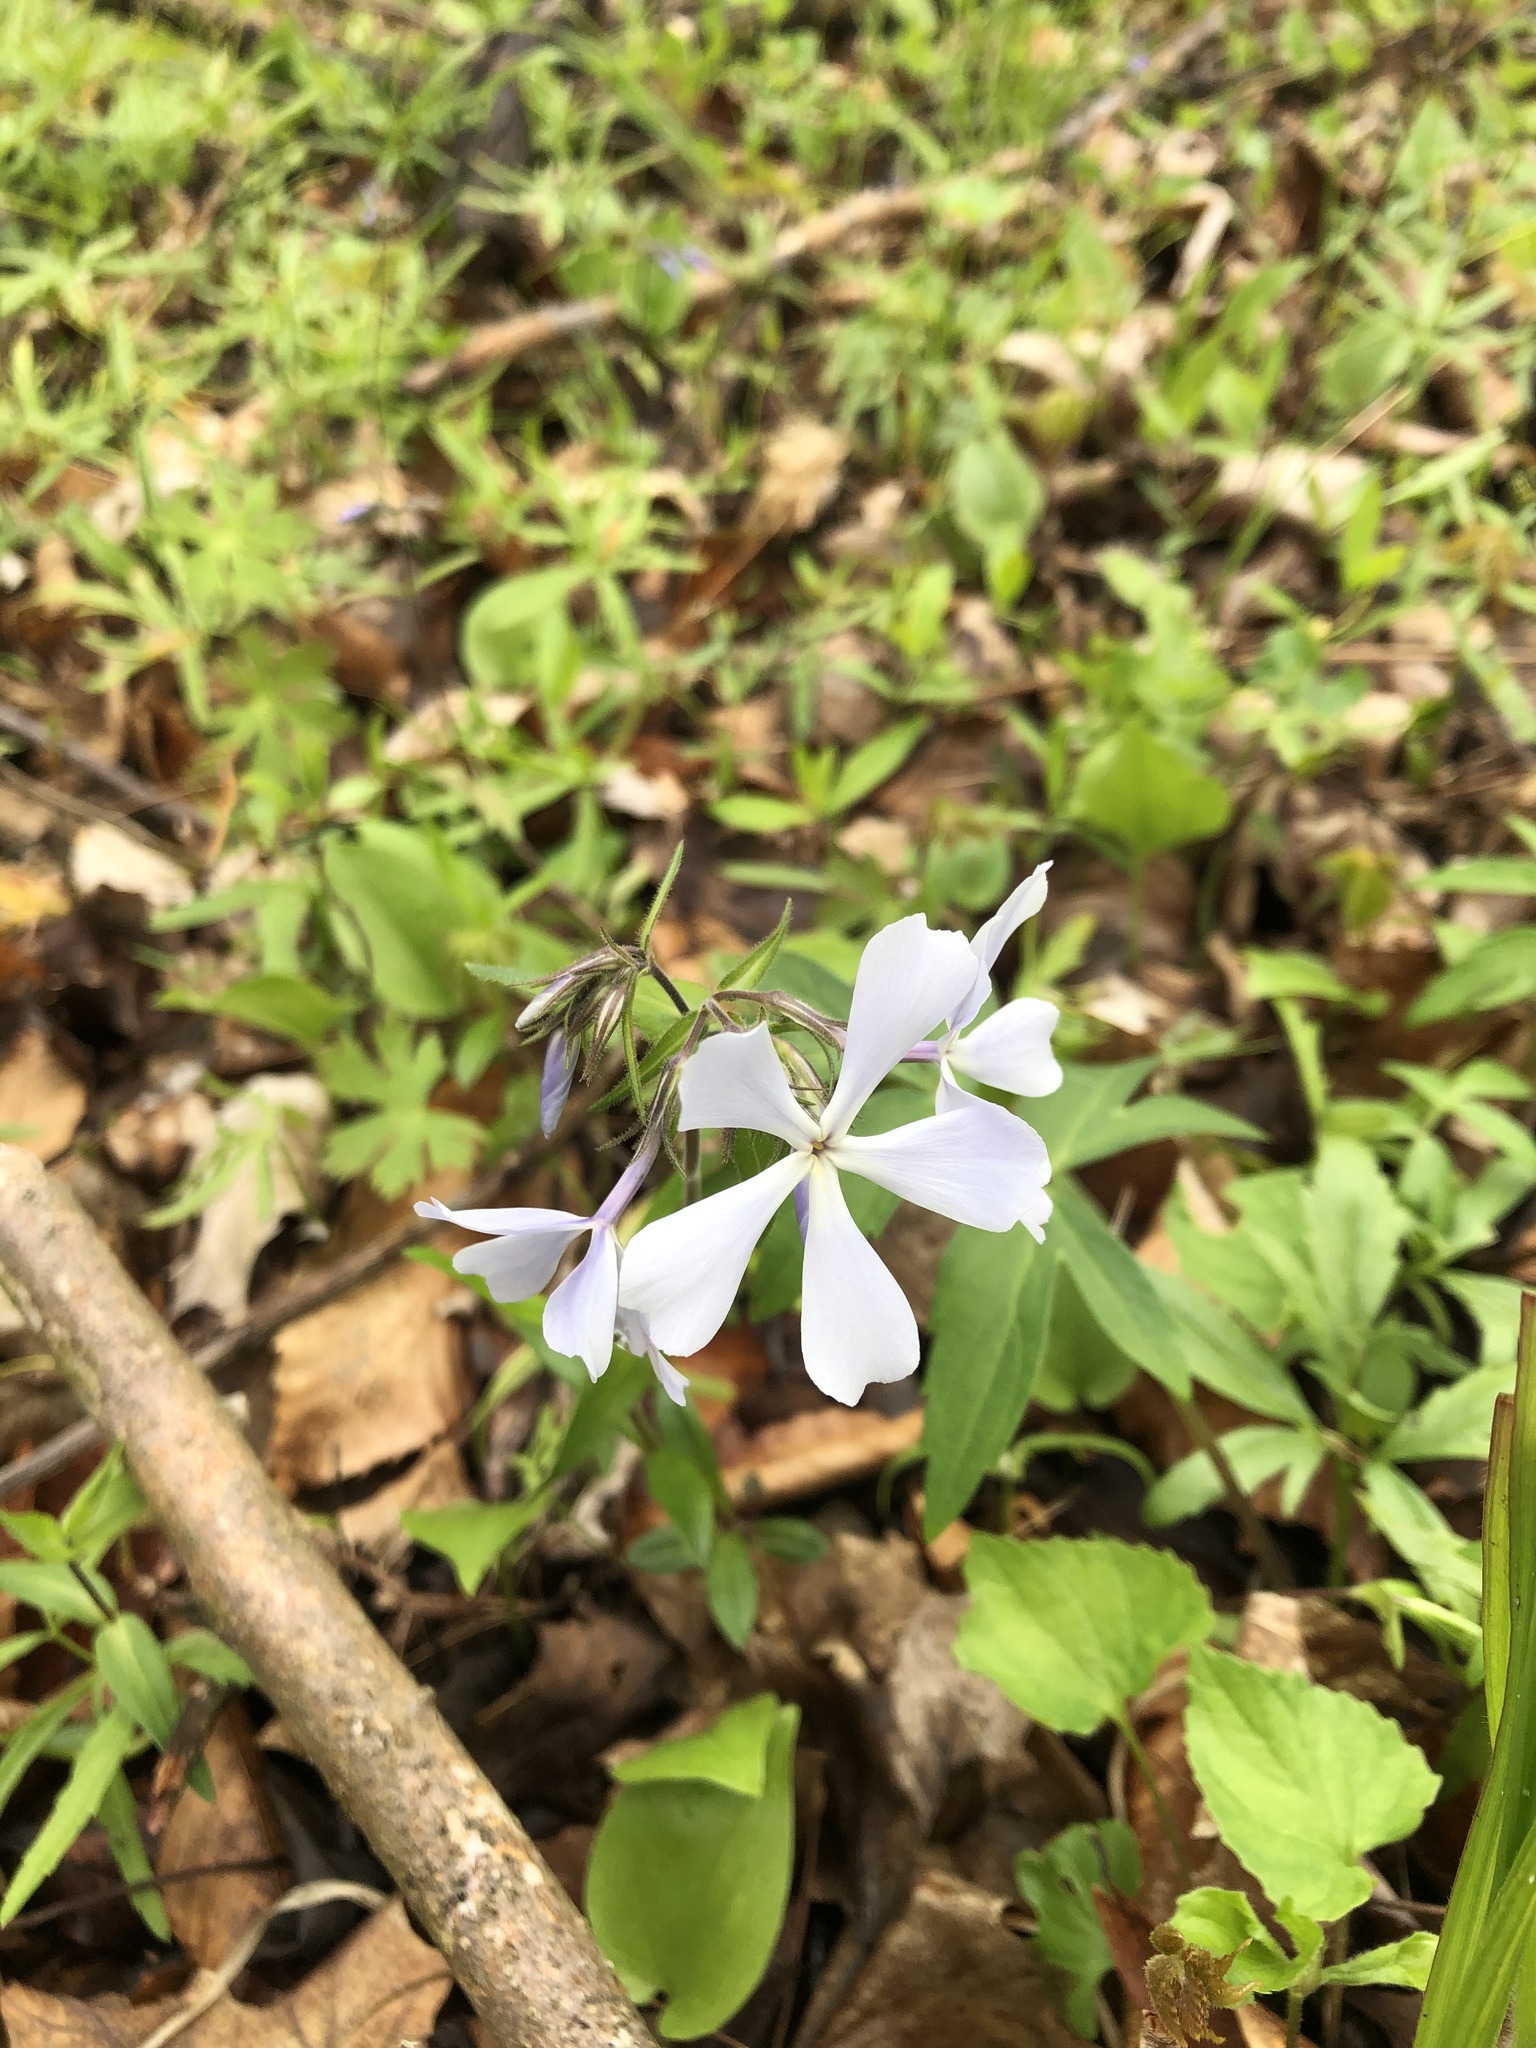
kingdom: Plantae
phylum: Tracheophyta
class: Magnoliopsida
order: Ericales
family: Polemoniaceae
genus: Phlox
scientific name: Phlox divaricata
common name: Blue phlox
